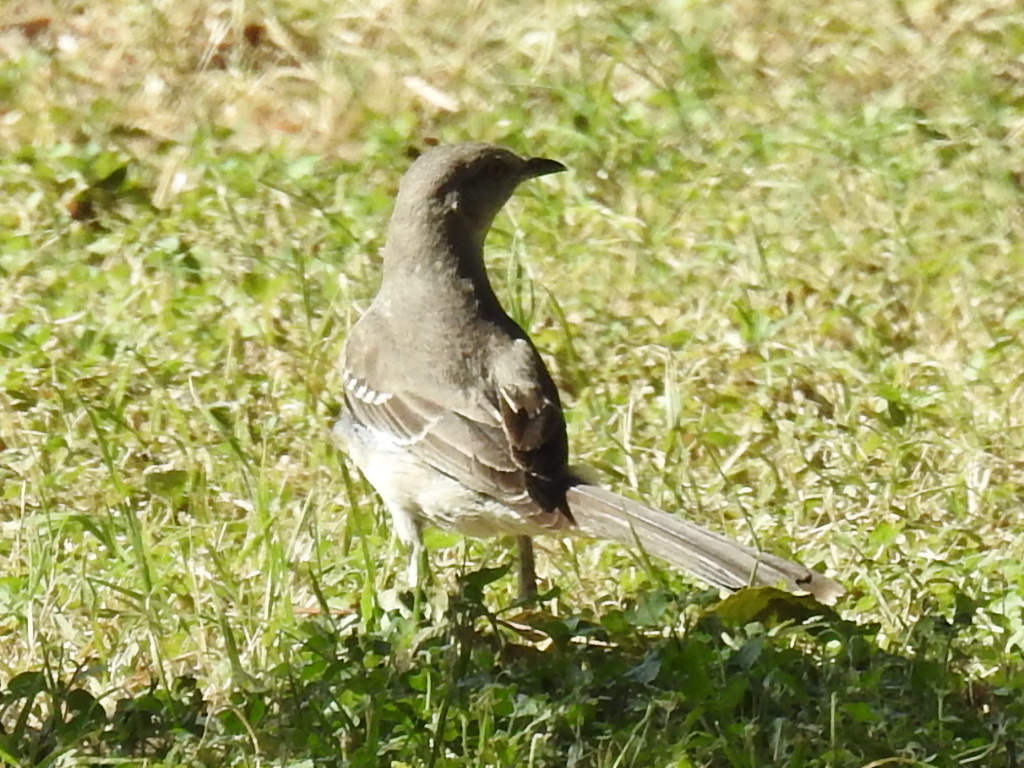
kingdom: Animalia
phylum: Chordata
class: Aves
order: Passeriformes
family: Mimidae
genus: Mimus
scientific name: Mimus polyglottos
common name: Northern mockingbird
